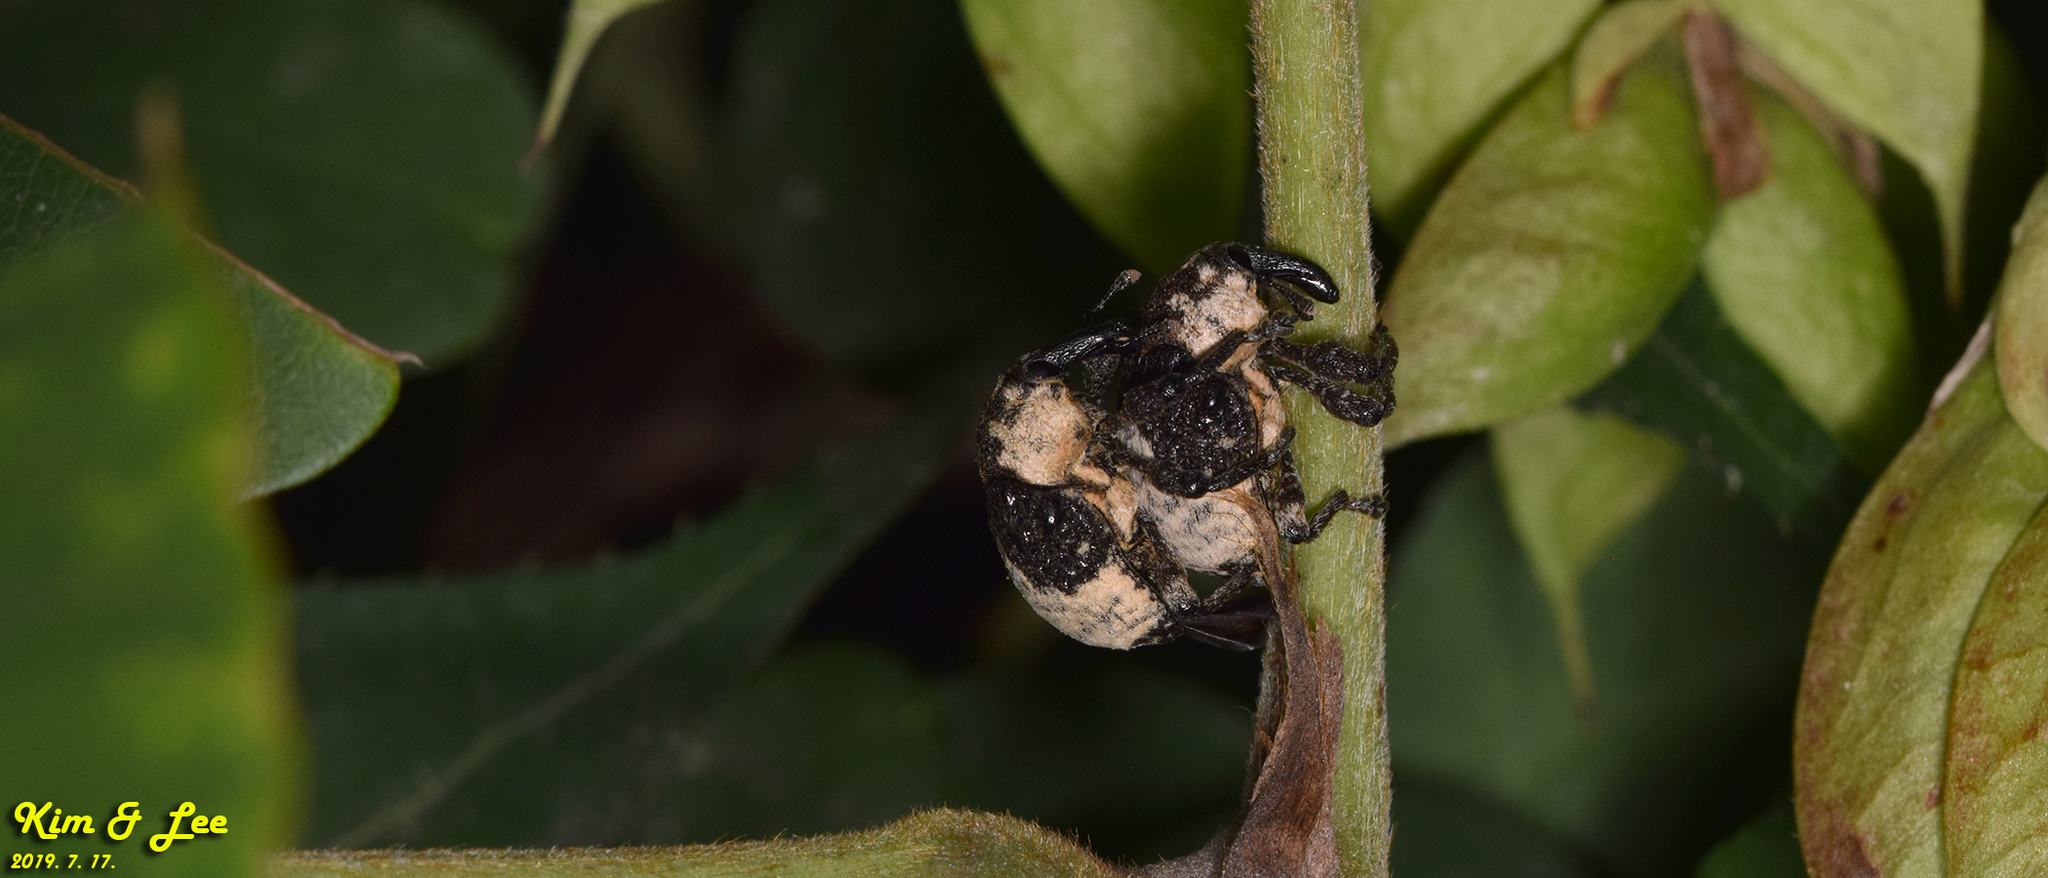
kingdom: Animalia
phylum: Arthropoda
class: Insecta
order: Coleoptera
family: Curculionidae
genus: Alcides
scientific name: Alcides trifidus
